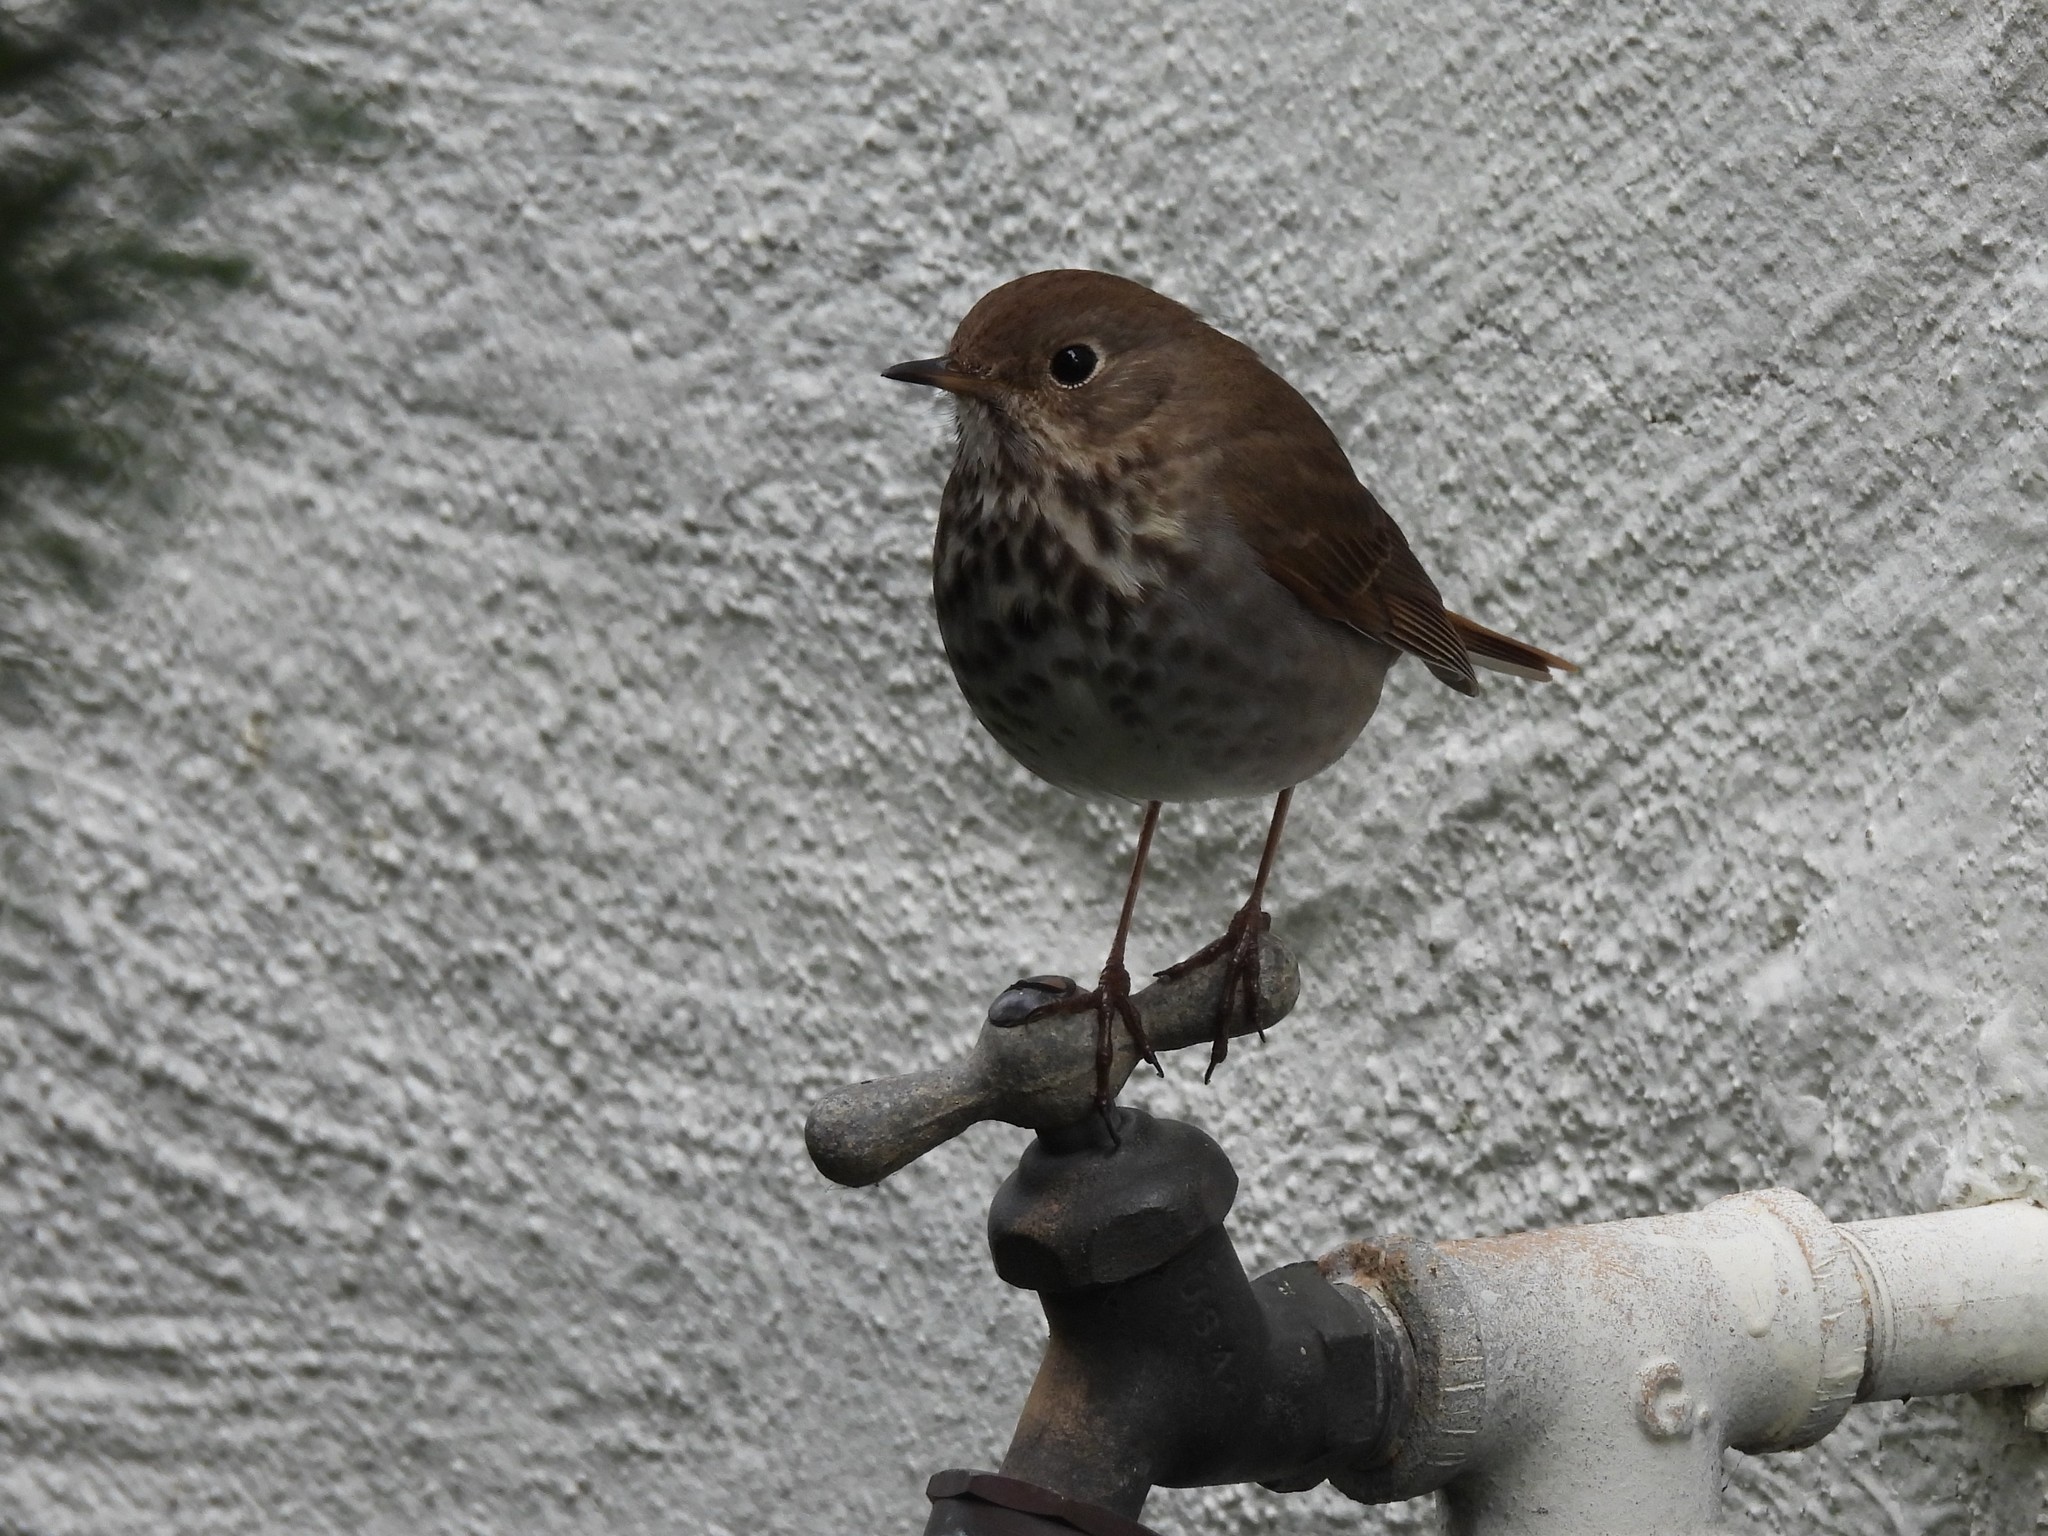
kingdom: Animalia
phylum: Chordata
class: Aves
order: Passeriformes
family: Turdidae
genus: Catharus
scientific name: Catharus guttatus
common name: Hermit thrush
